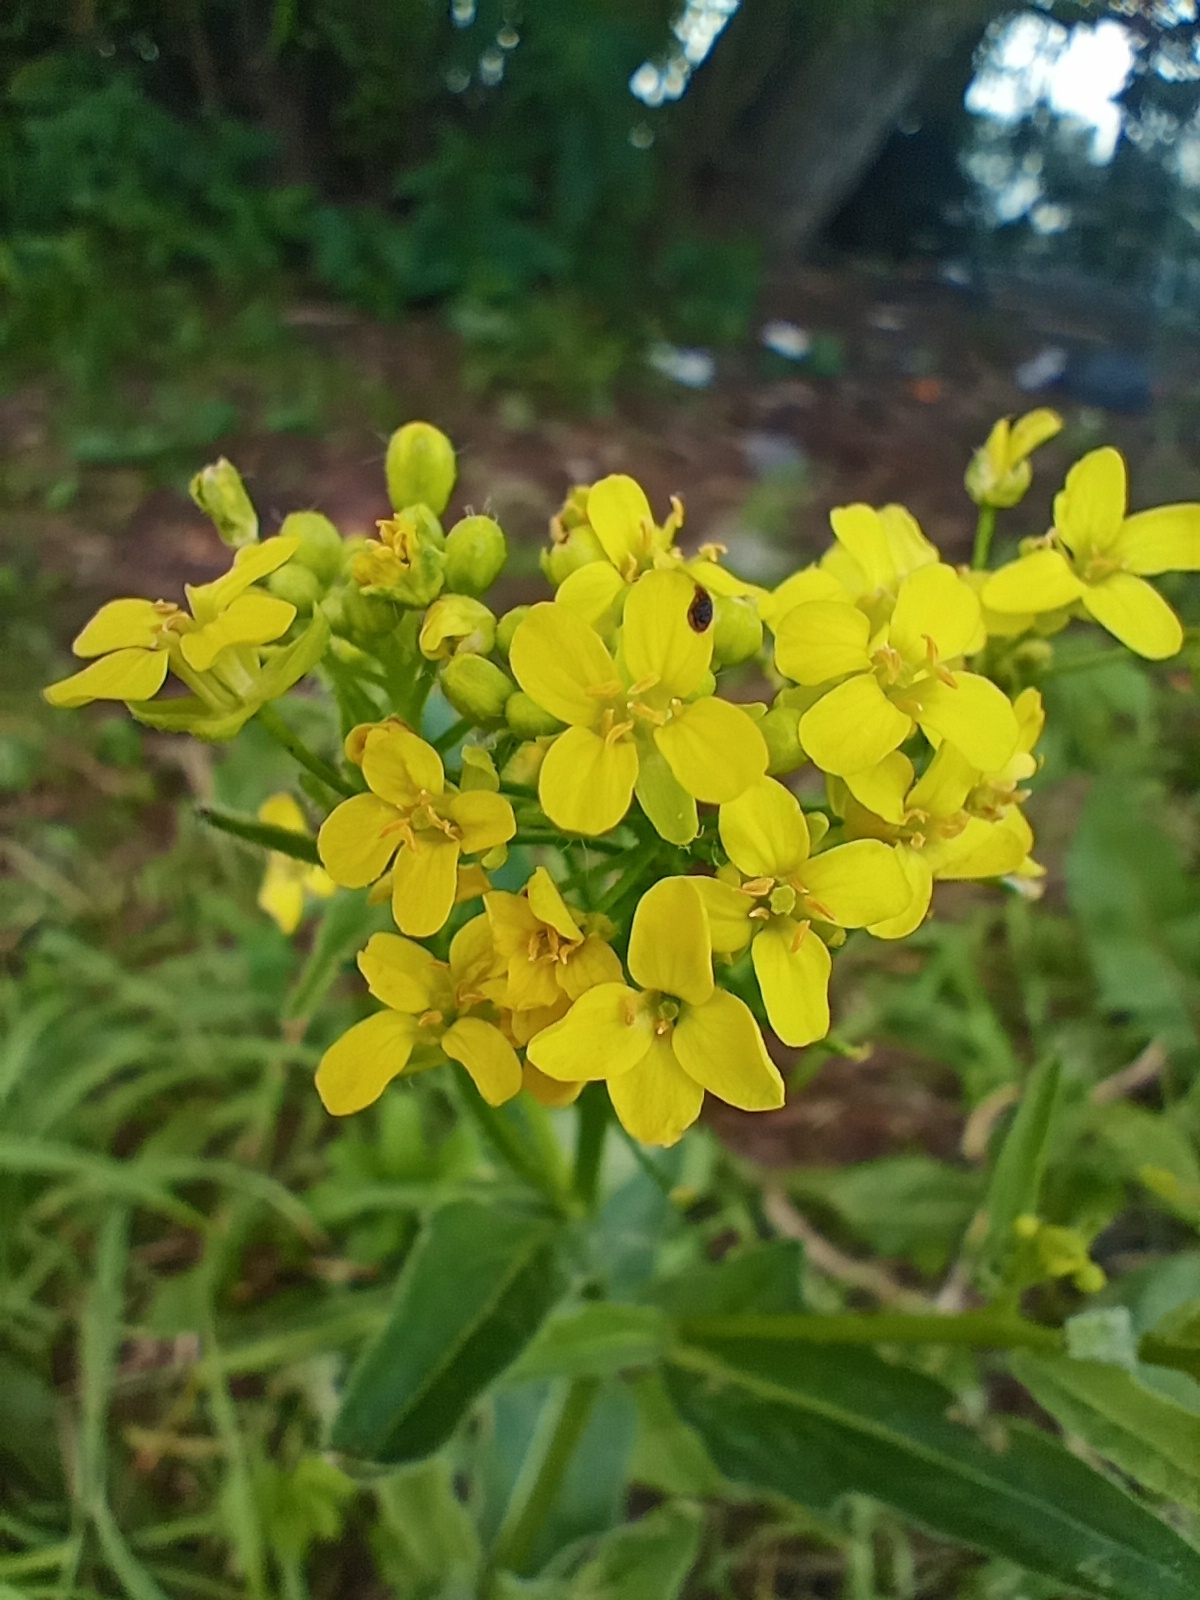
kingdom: Plantae
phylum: Tracheophyta
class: Magnoliopsida
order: Brassicales
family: Brassicaceae
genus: Bunias
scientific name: Bunias orientalis
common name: Warty-cabbage
